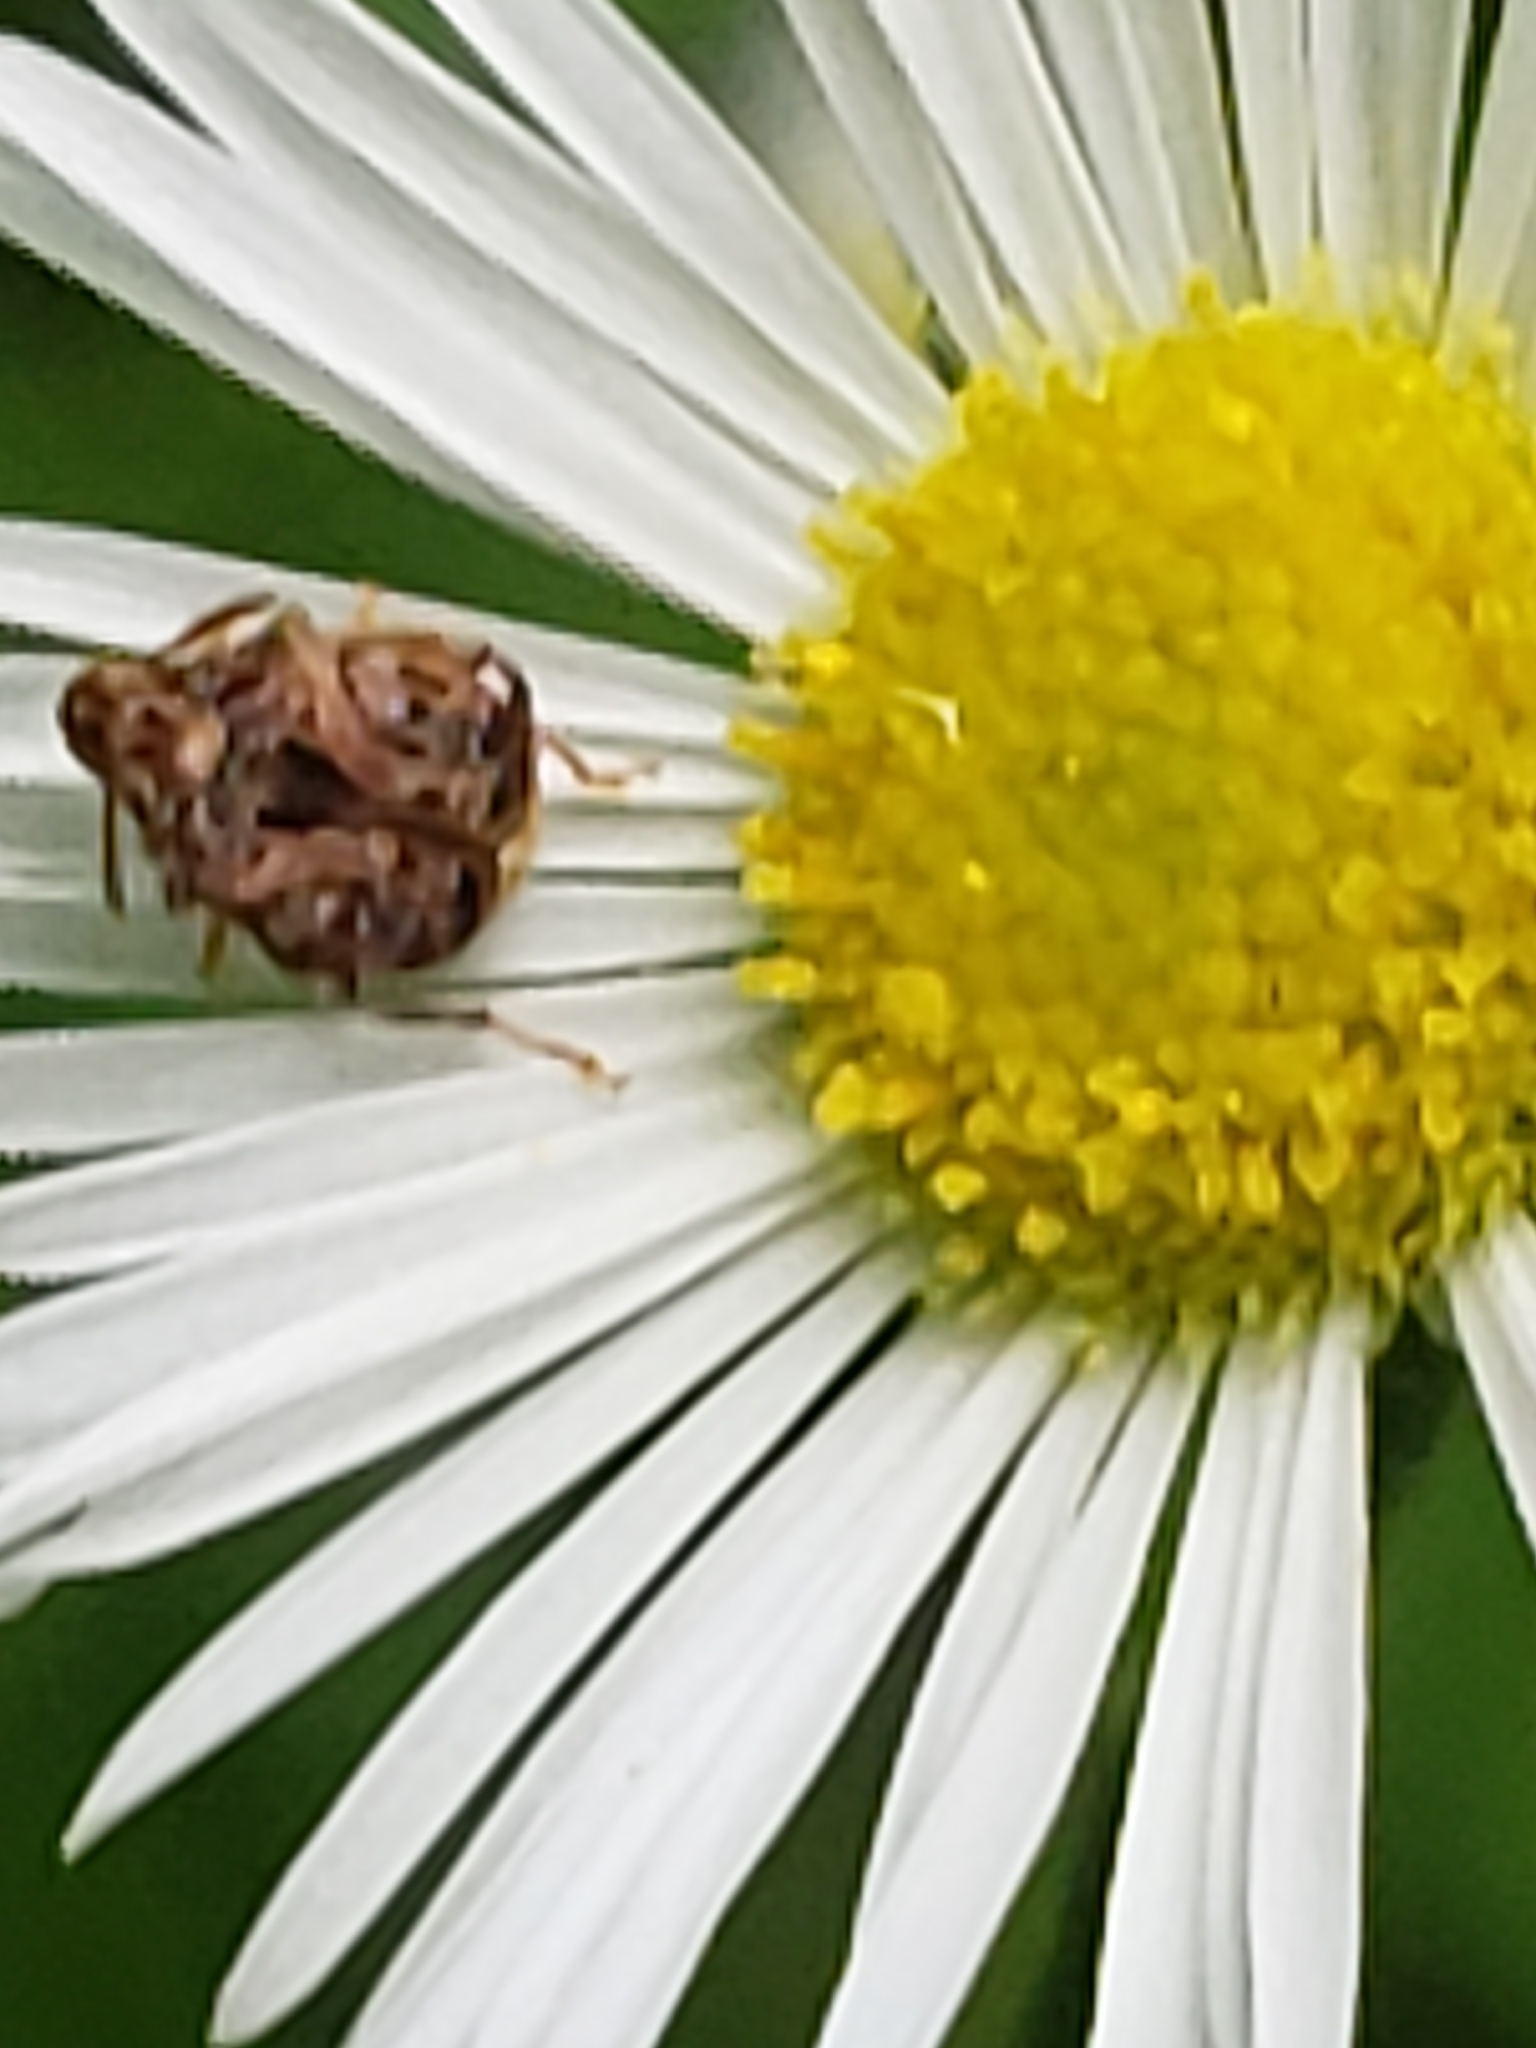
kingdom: Animalia
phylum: Arthropoda
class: Insecta
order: Coleoptera
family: Chrysomelidae
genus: Gibbobruchus
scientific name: Gibbobruchus mimus
